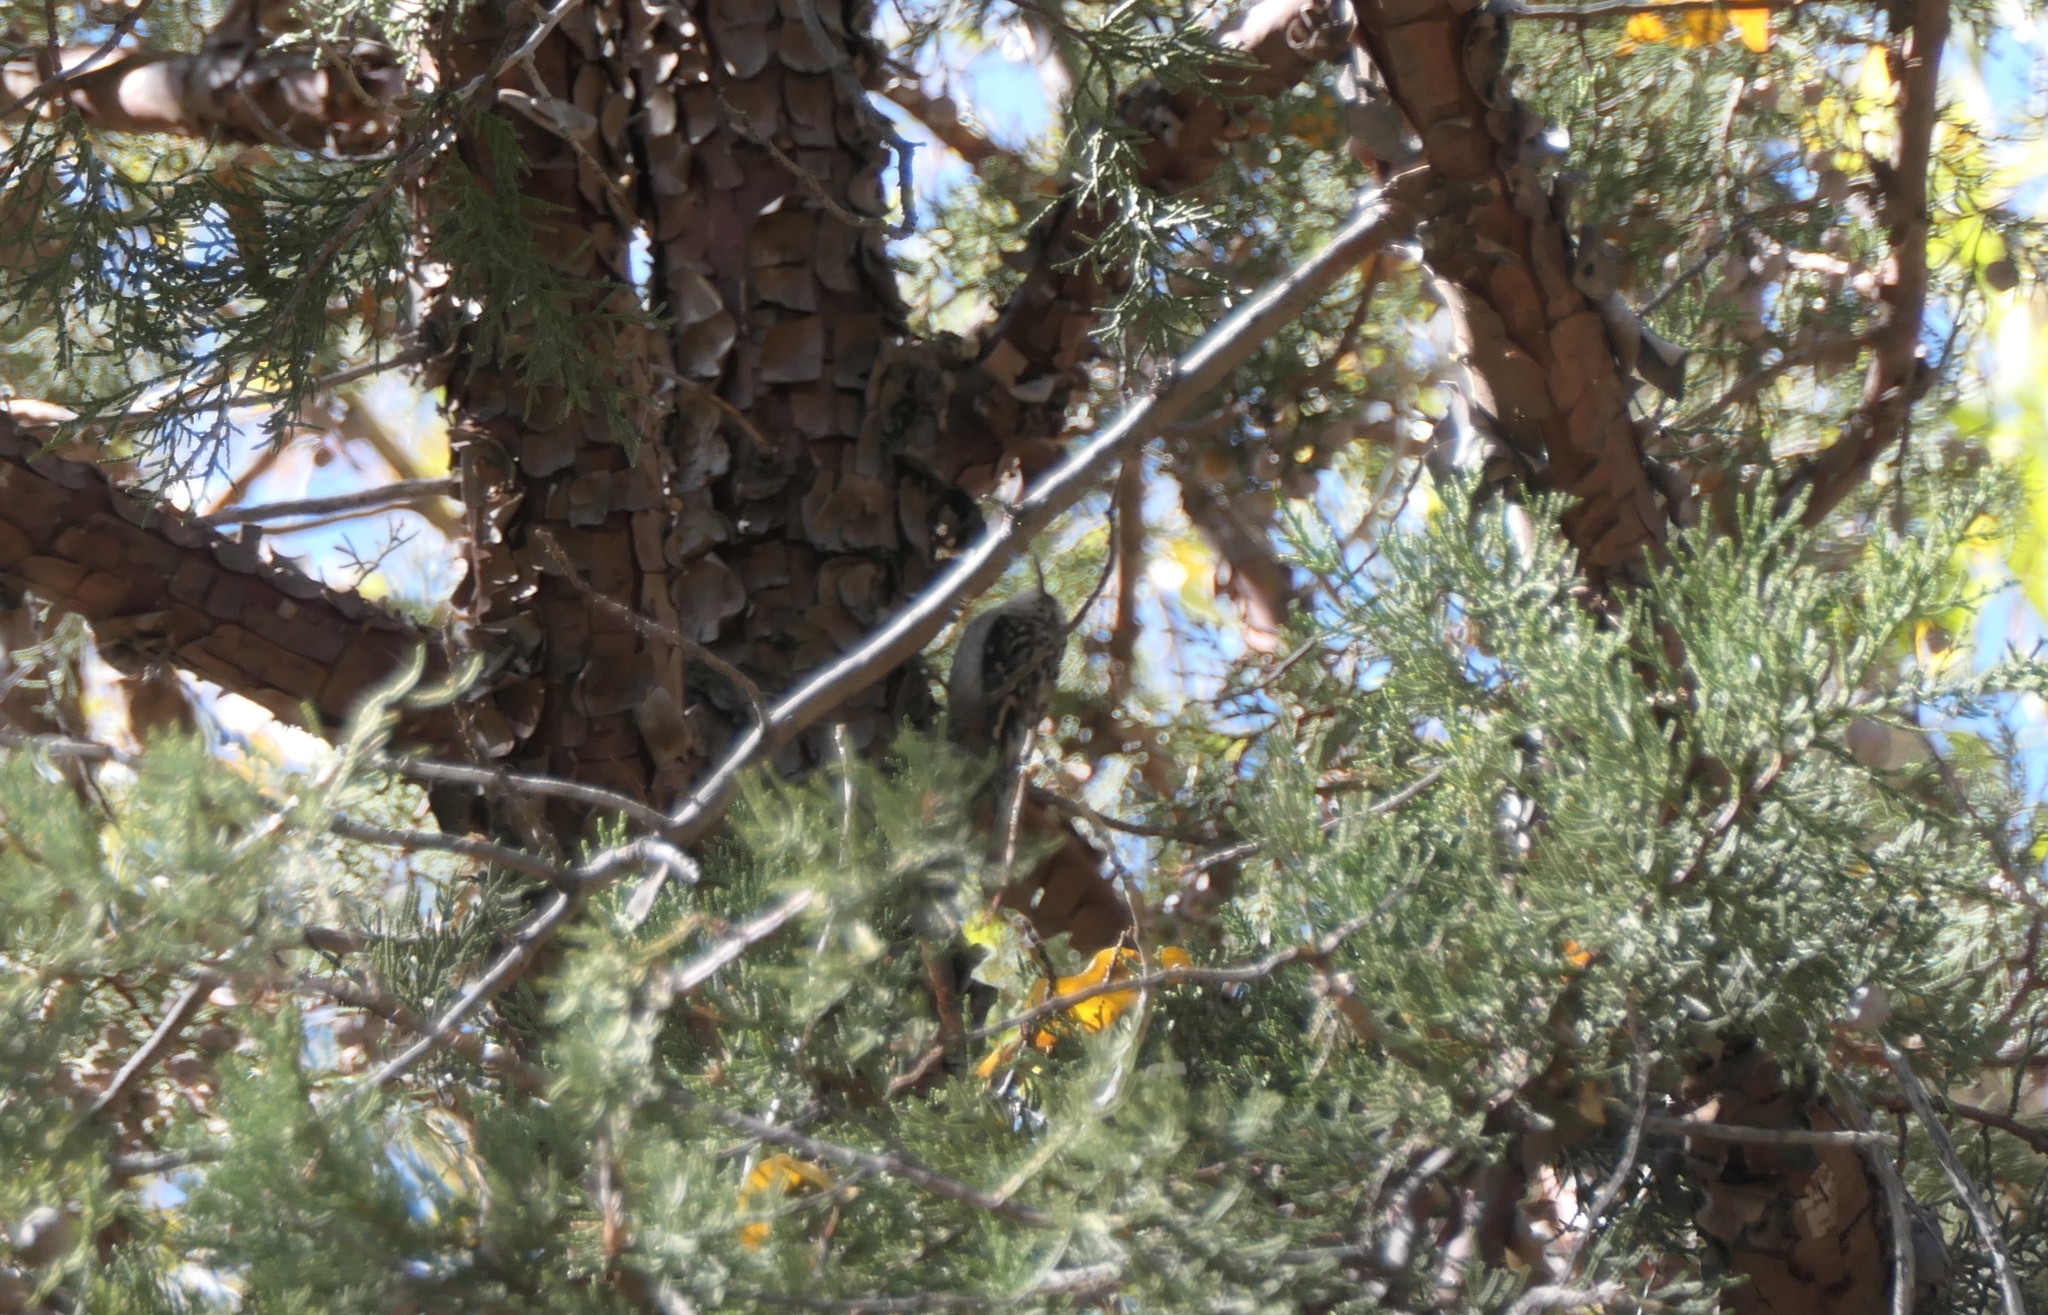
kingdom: Animalia
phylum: Chordata
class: Aves
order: Passeriformes
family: Certhiidae
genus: Certhia
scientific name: Certhia americana
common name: Brown creeper
